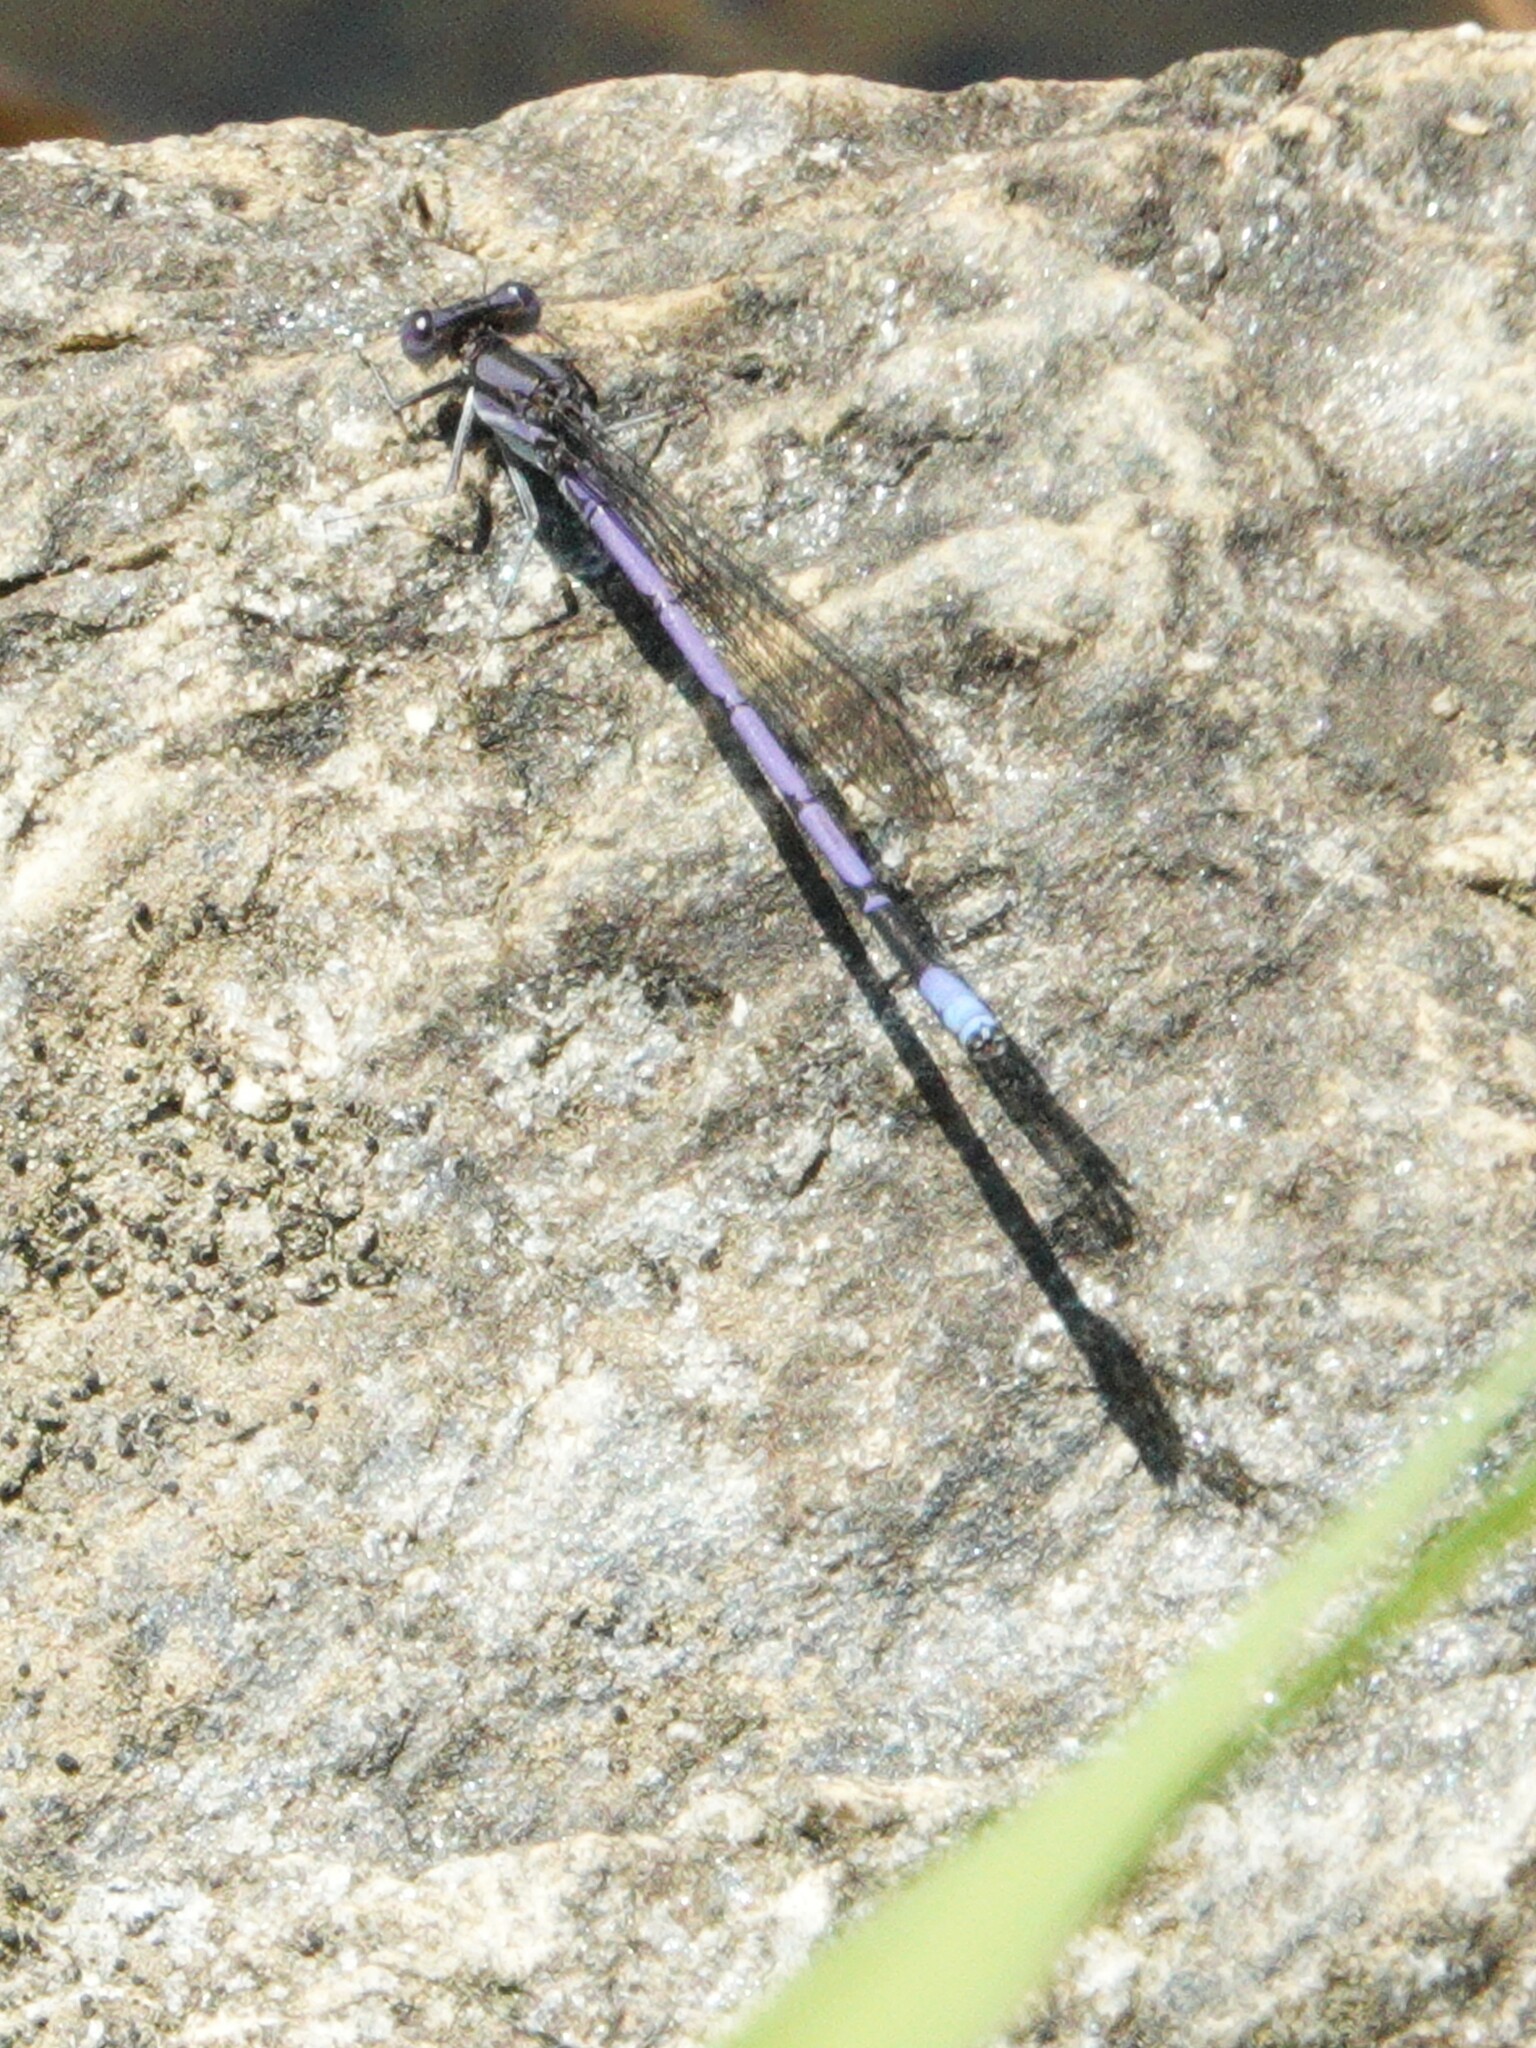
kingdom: Animalia
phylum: Arthropoda
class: Insecta
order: Odonata
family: Coenagrionidae
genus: Argia
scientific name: Argia fumipennis
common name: Variable dancer
